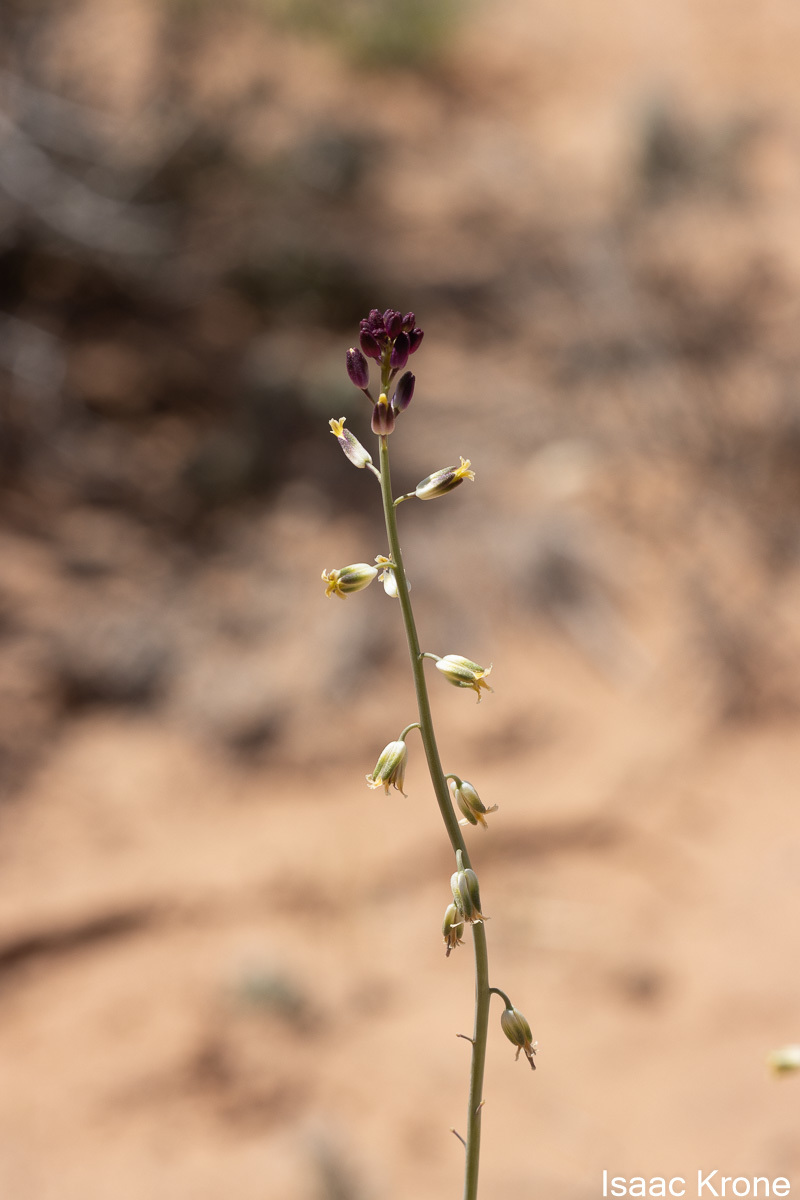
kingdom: Plantae
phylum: Tracheophyta
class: Magnoliopsida
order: Brassicales
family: Brassicaceae
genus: Streptanthus
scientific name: Streptanthus longirostris
